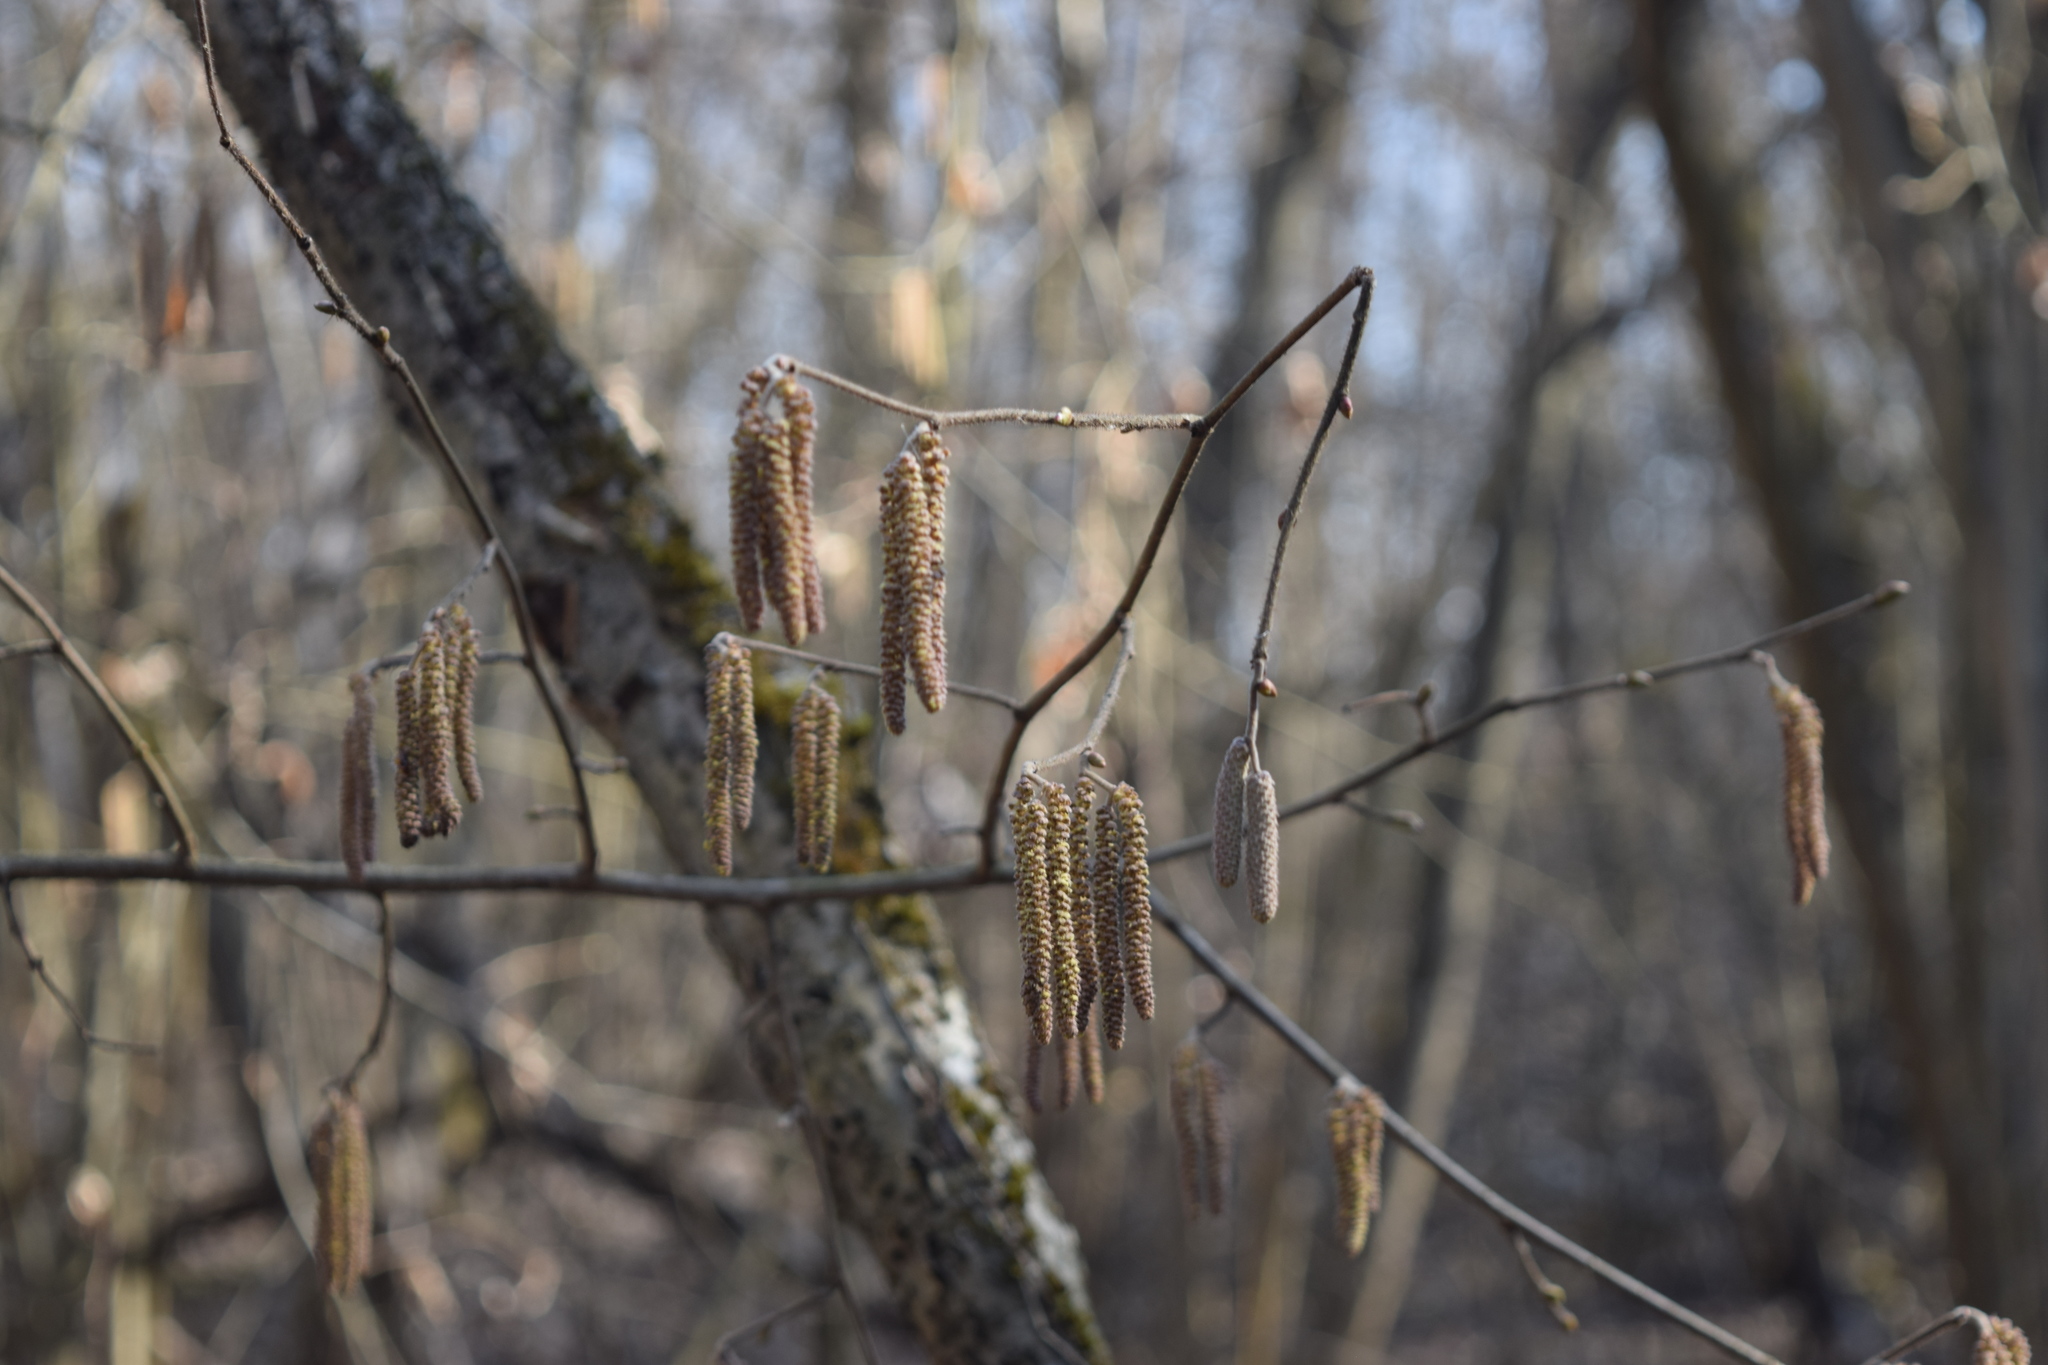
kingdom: Plantae
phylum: Tracheophyta
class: Magnoliopsida
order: Fagales
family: Betulaceae
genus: Corylus
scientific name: Corylus avellana
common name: European hazel
